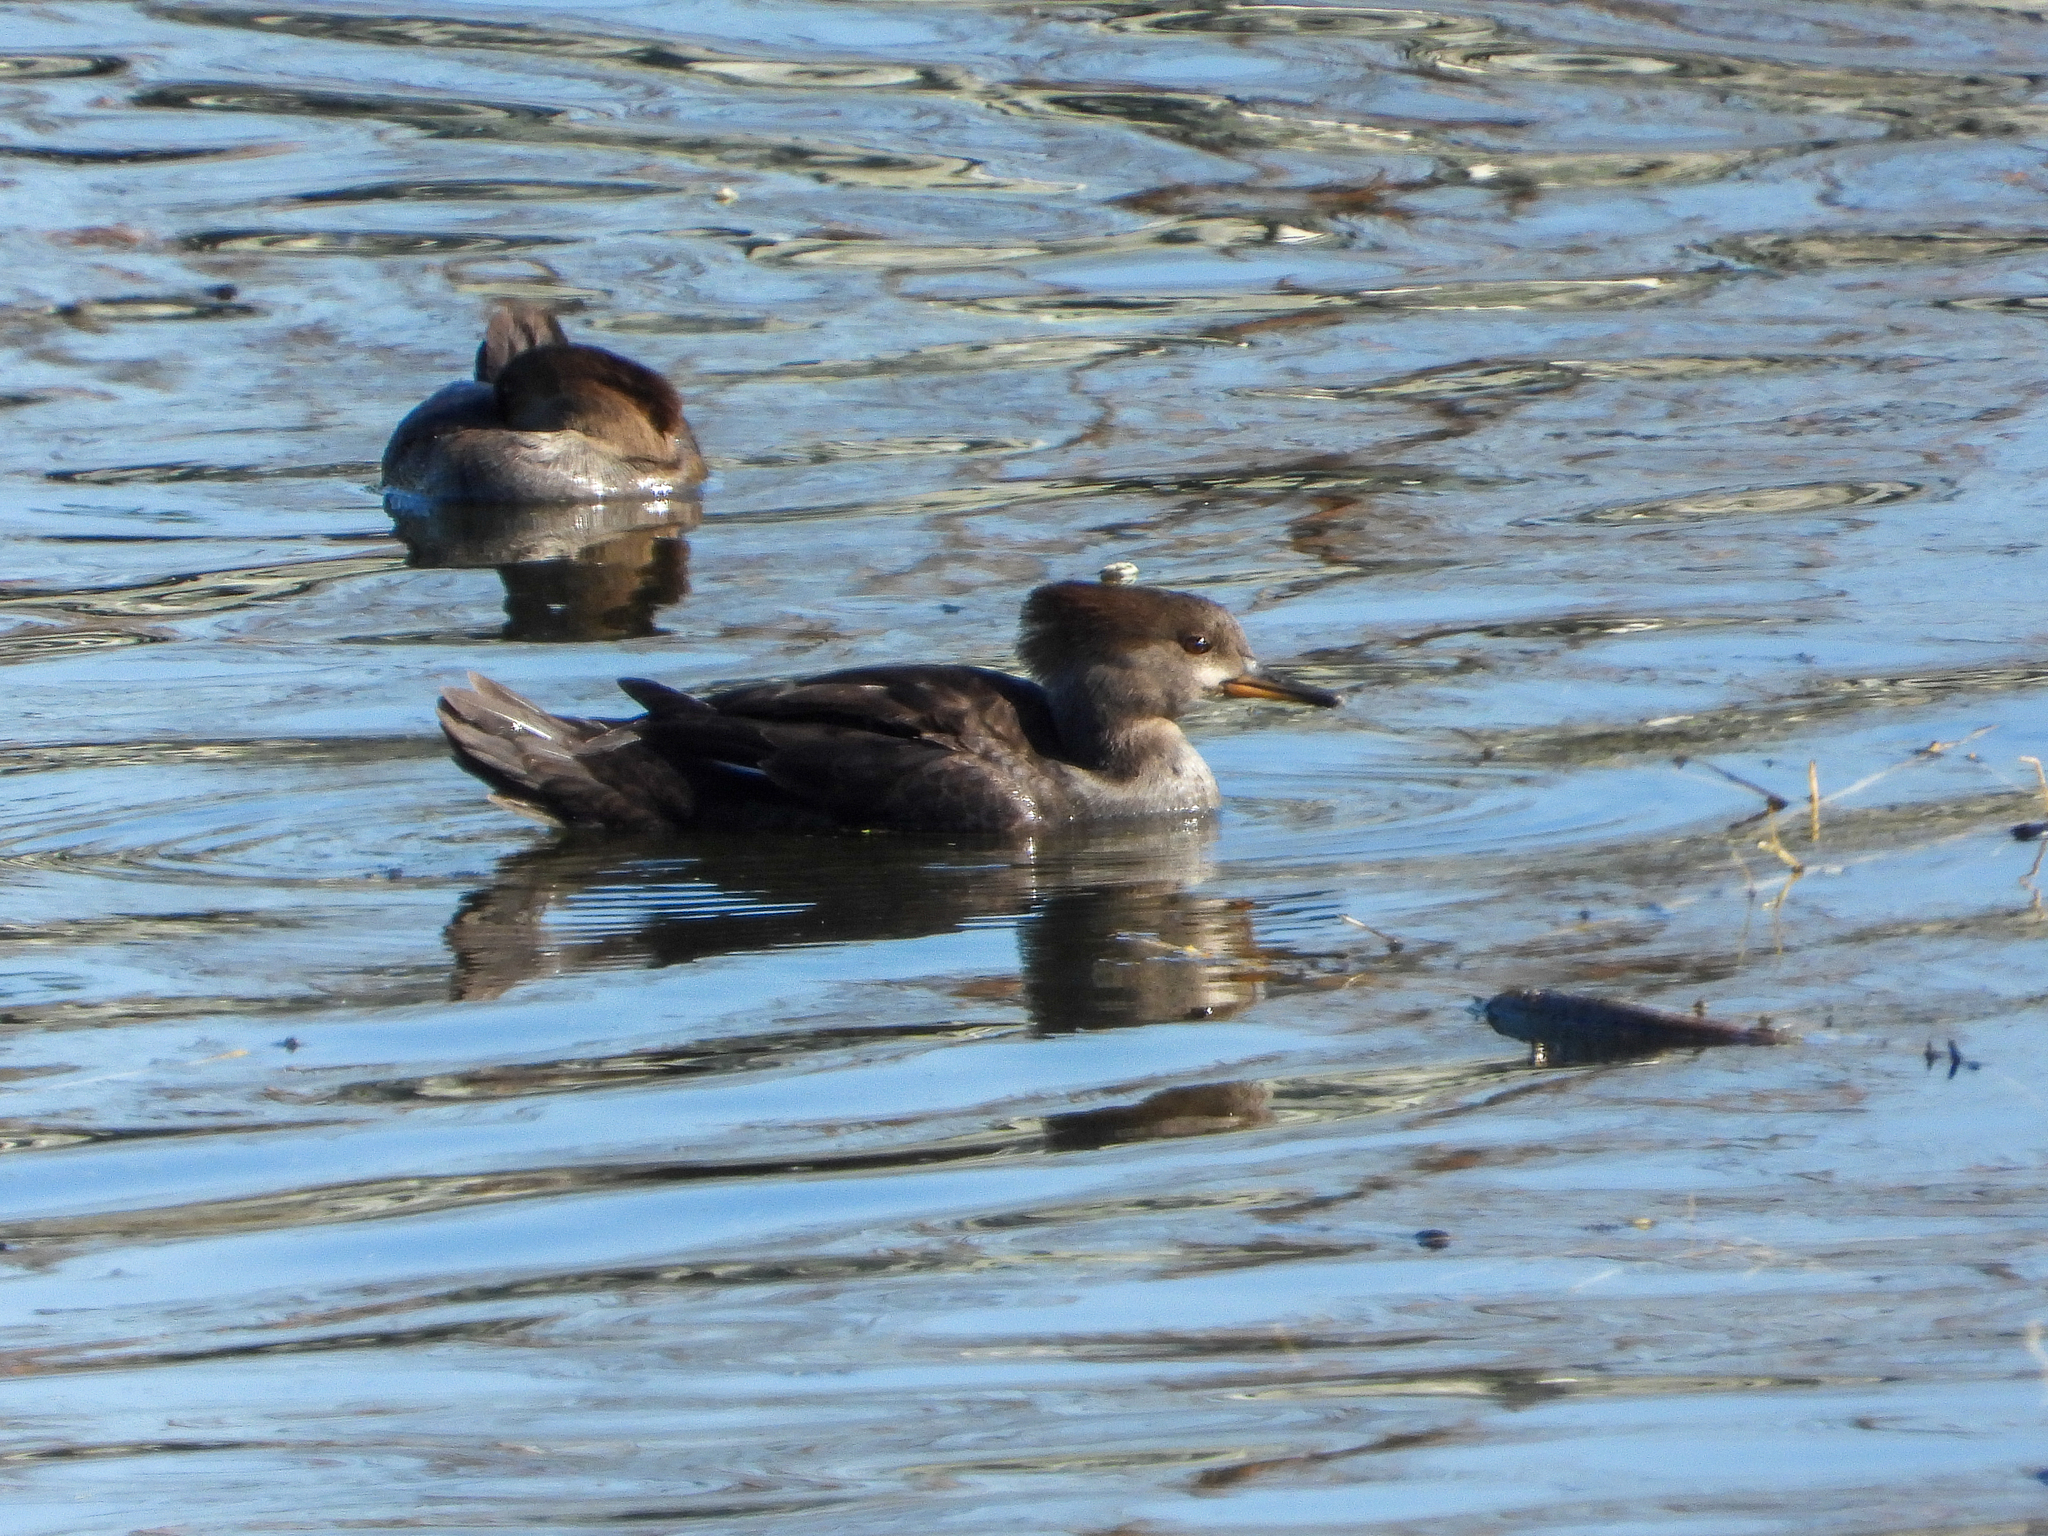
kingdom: Animalia
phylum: Chordata
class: Aves
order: Anseriformes
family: Anatidae
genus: Lophodytes
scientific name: Lophodytes cucullatus
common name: Hooded merganser
